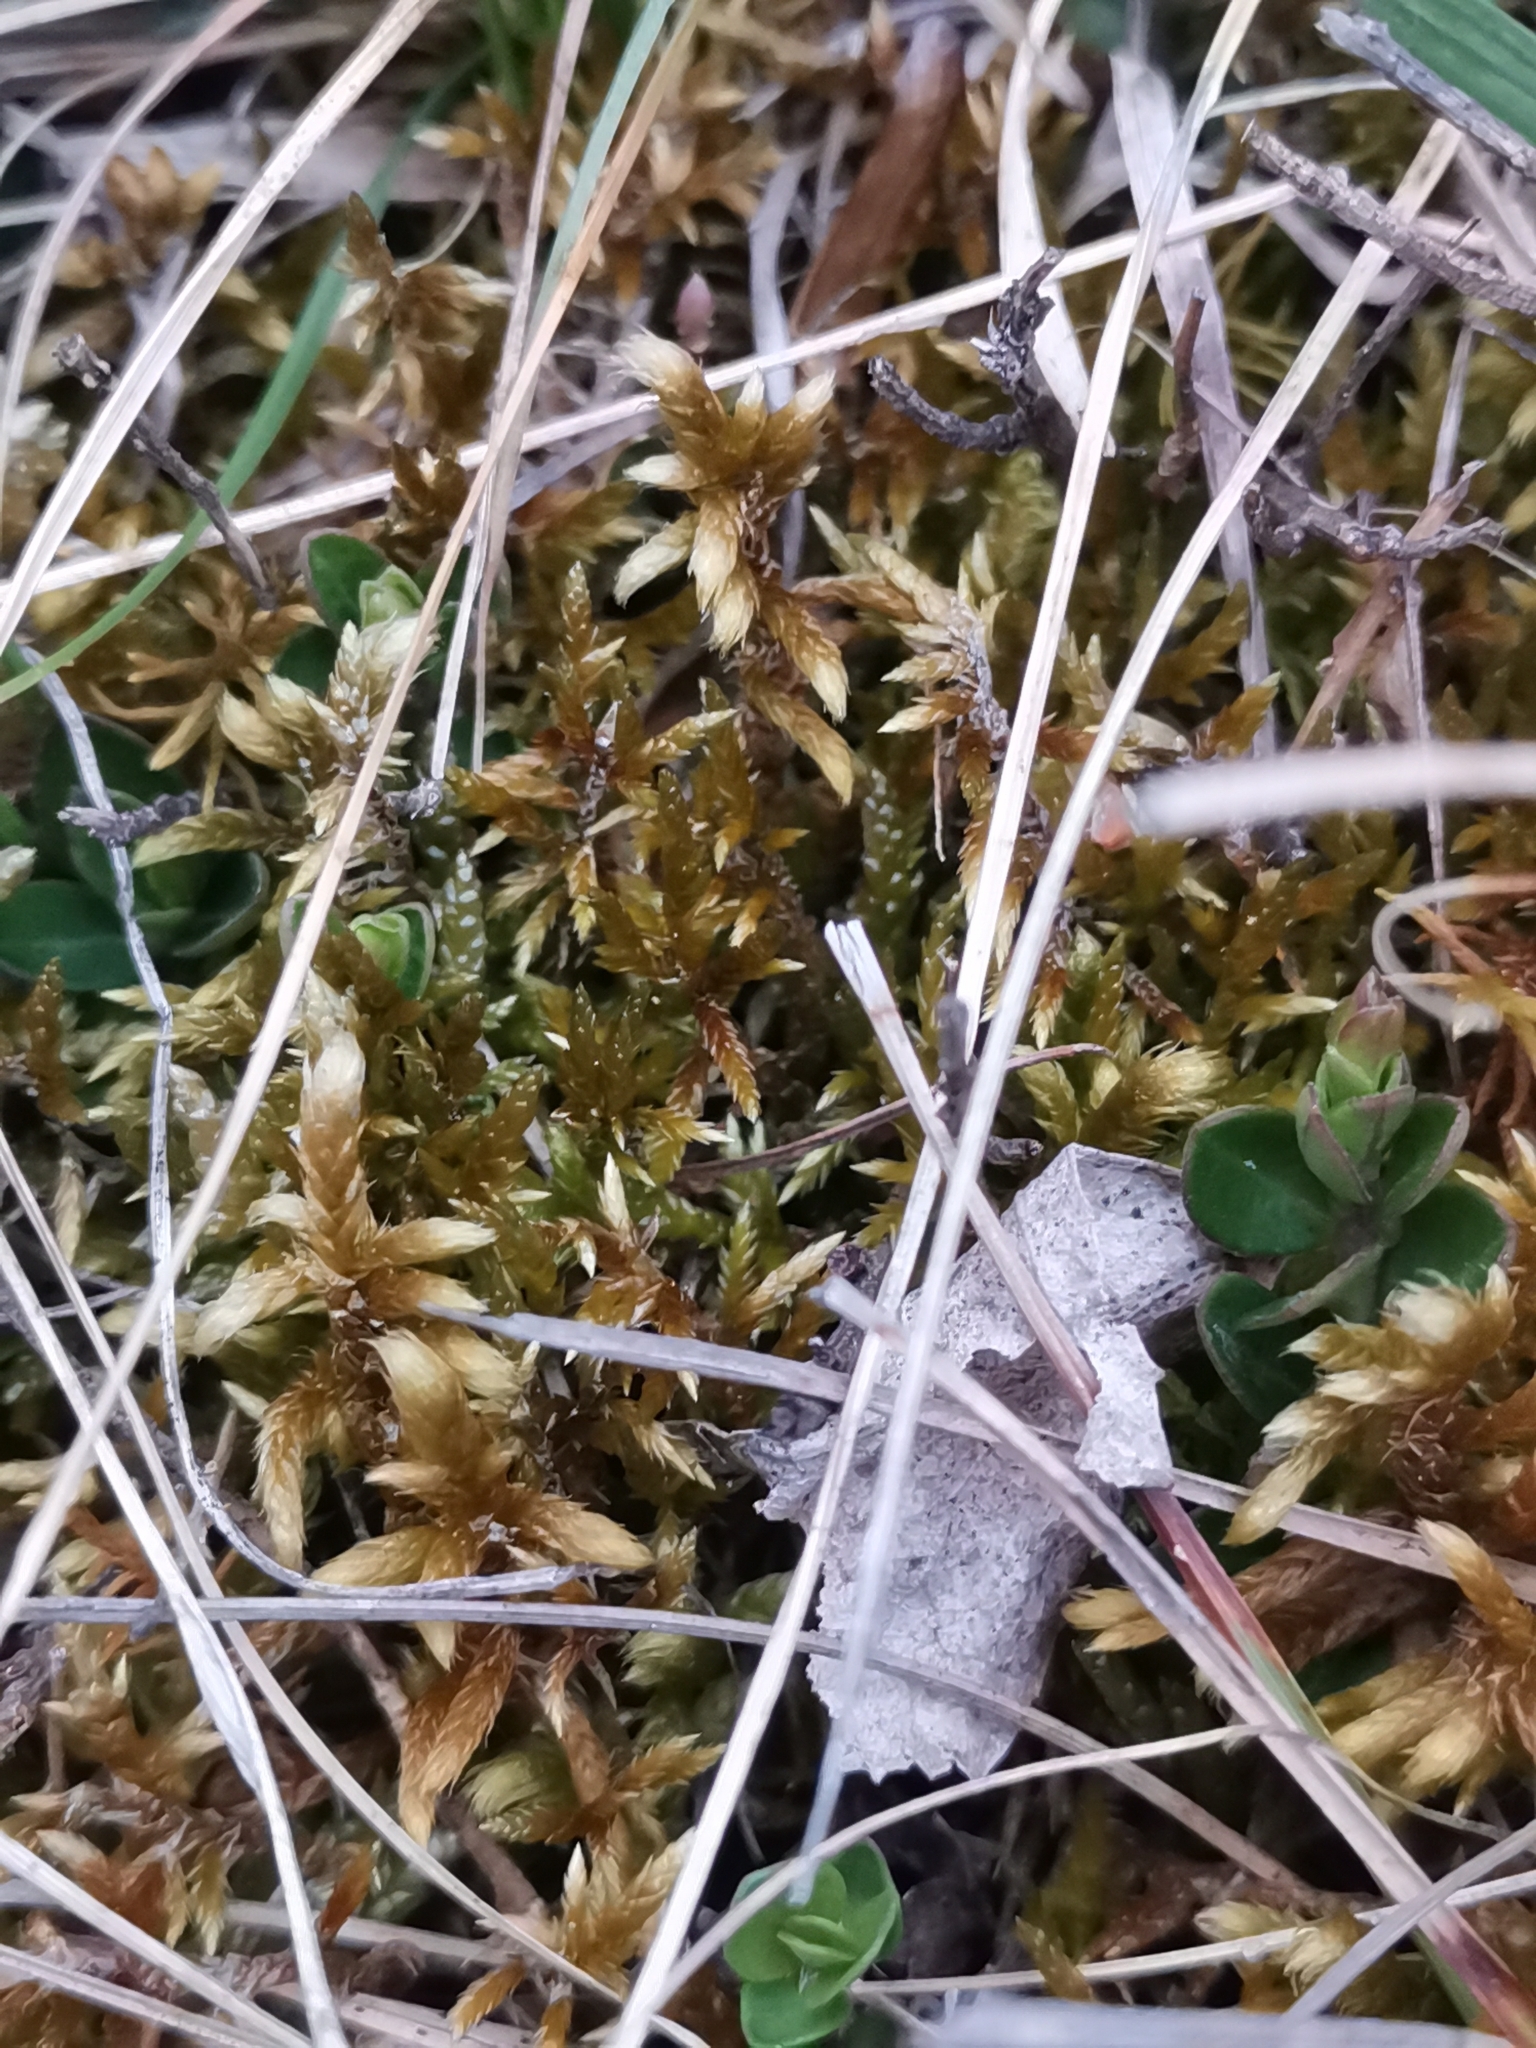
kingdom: Plantae
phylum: Bryophyta
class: Bryopsida
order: Hypnales
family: Rhytidiaceae
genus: Rhytidium
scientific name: Rhytidium rugosum
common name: Wrinkle-leaved moss
